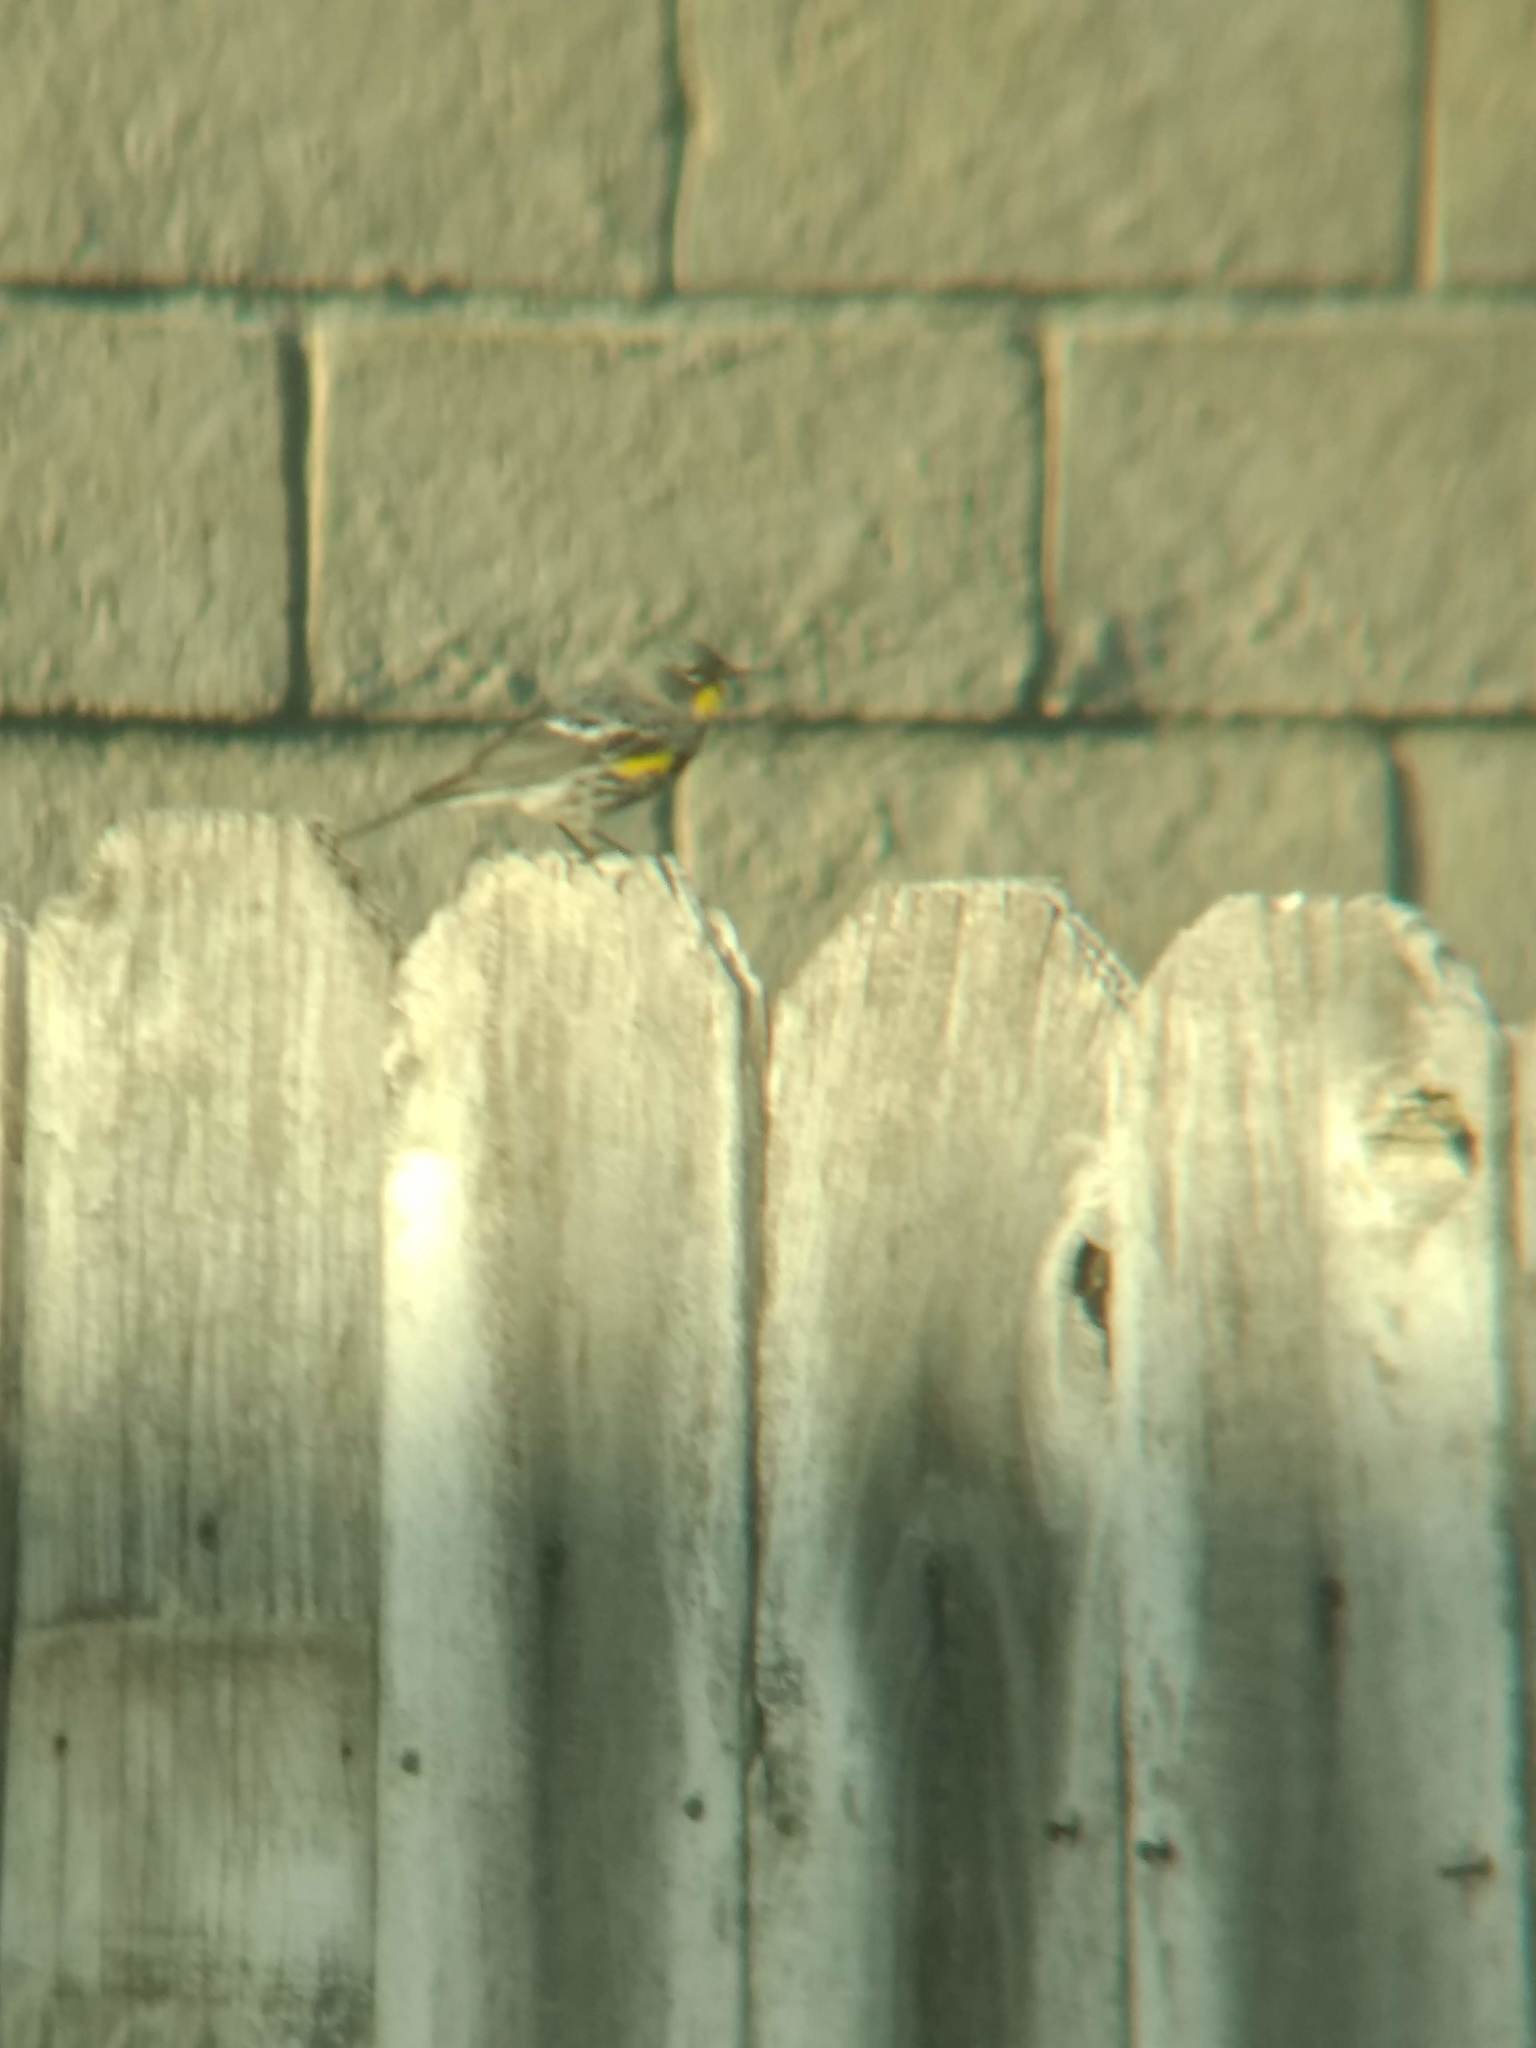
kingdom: Animalia
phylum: Chordata
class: Aves
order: Passeriformes
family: Parulidae
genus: Setophaga
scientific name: Setophaga coronata
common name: Myrtle warbler
